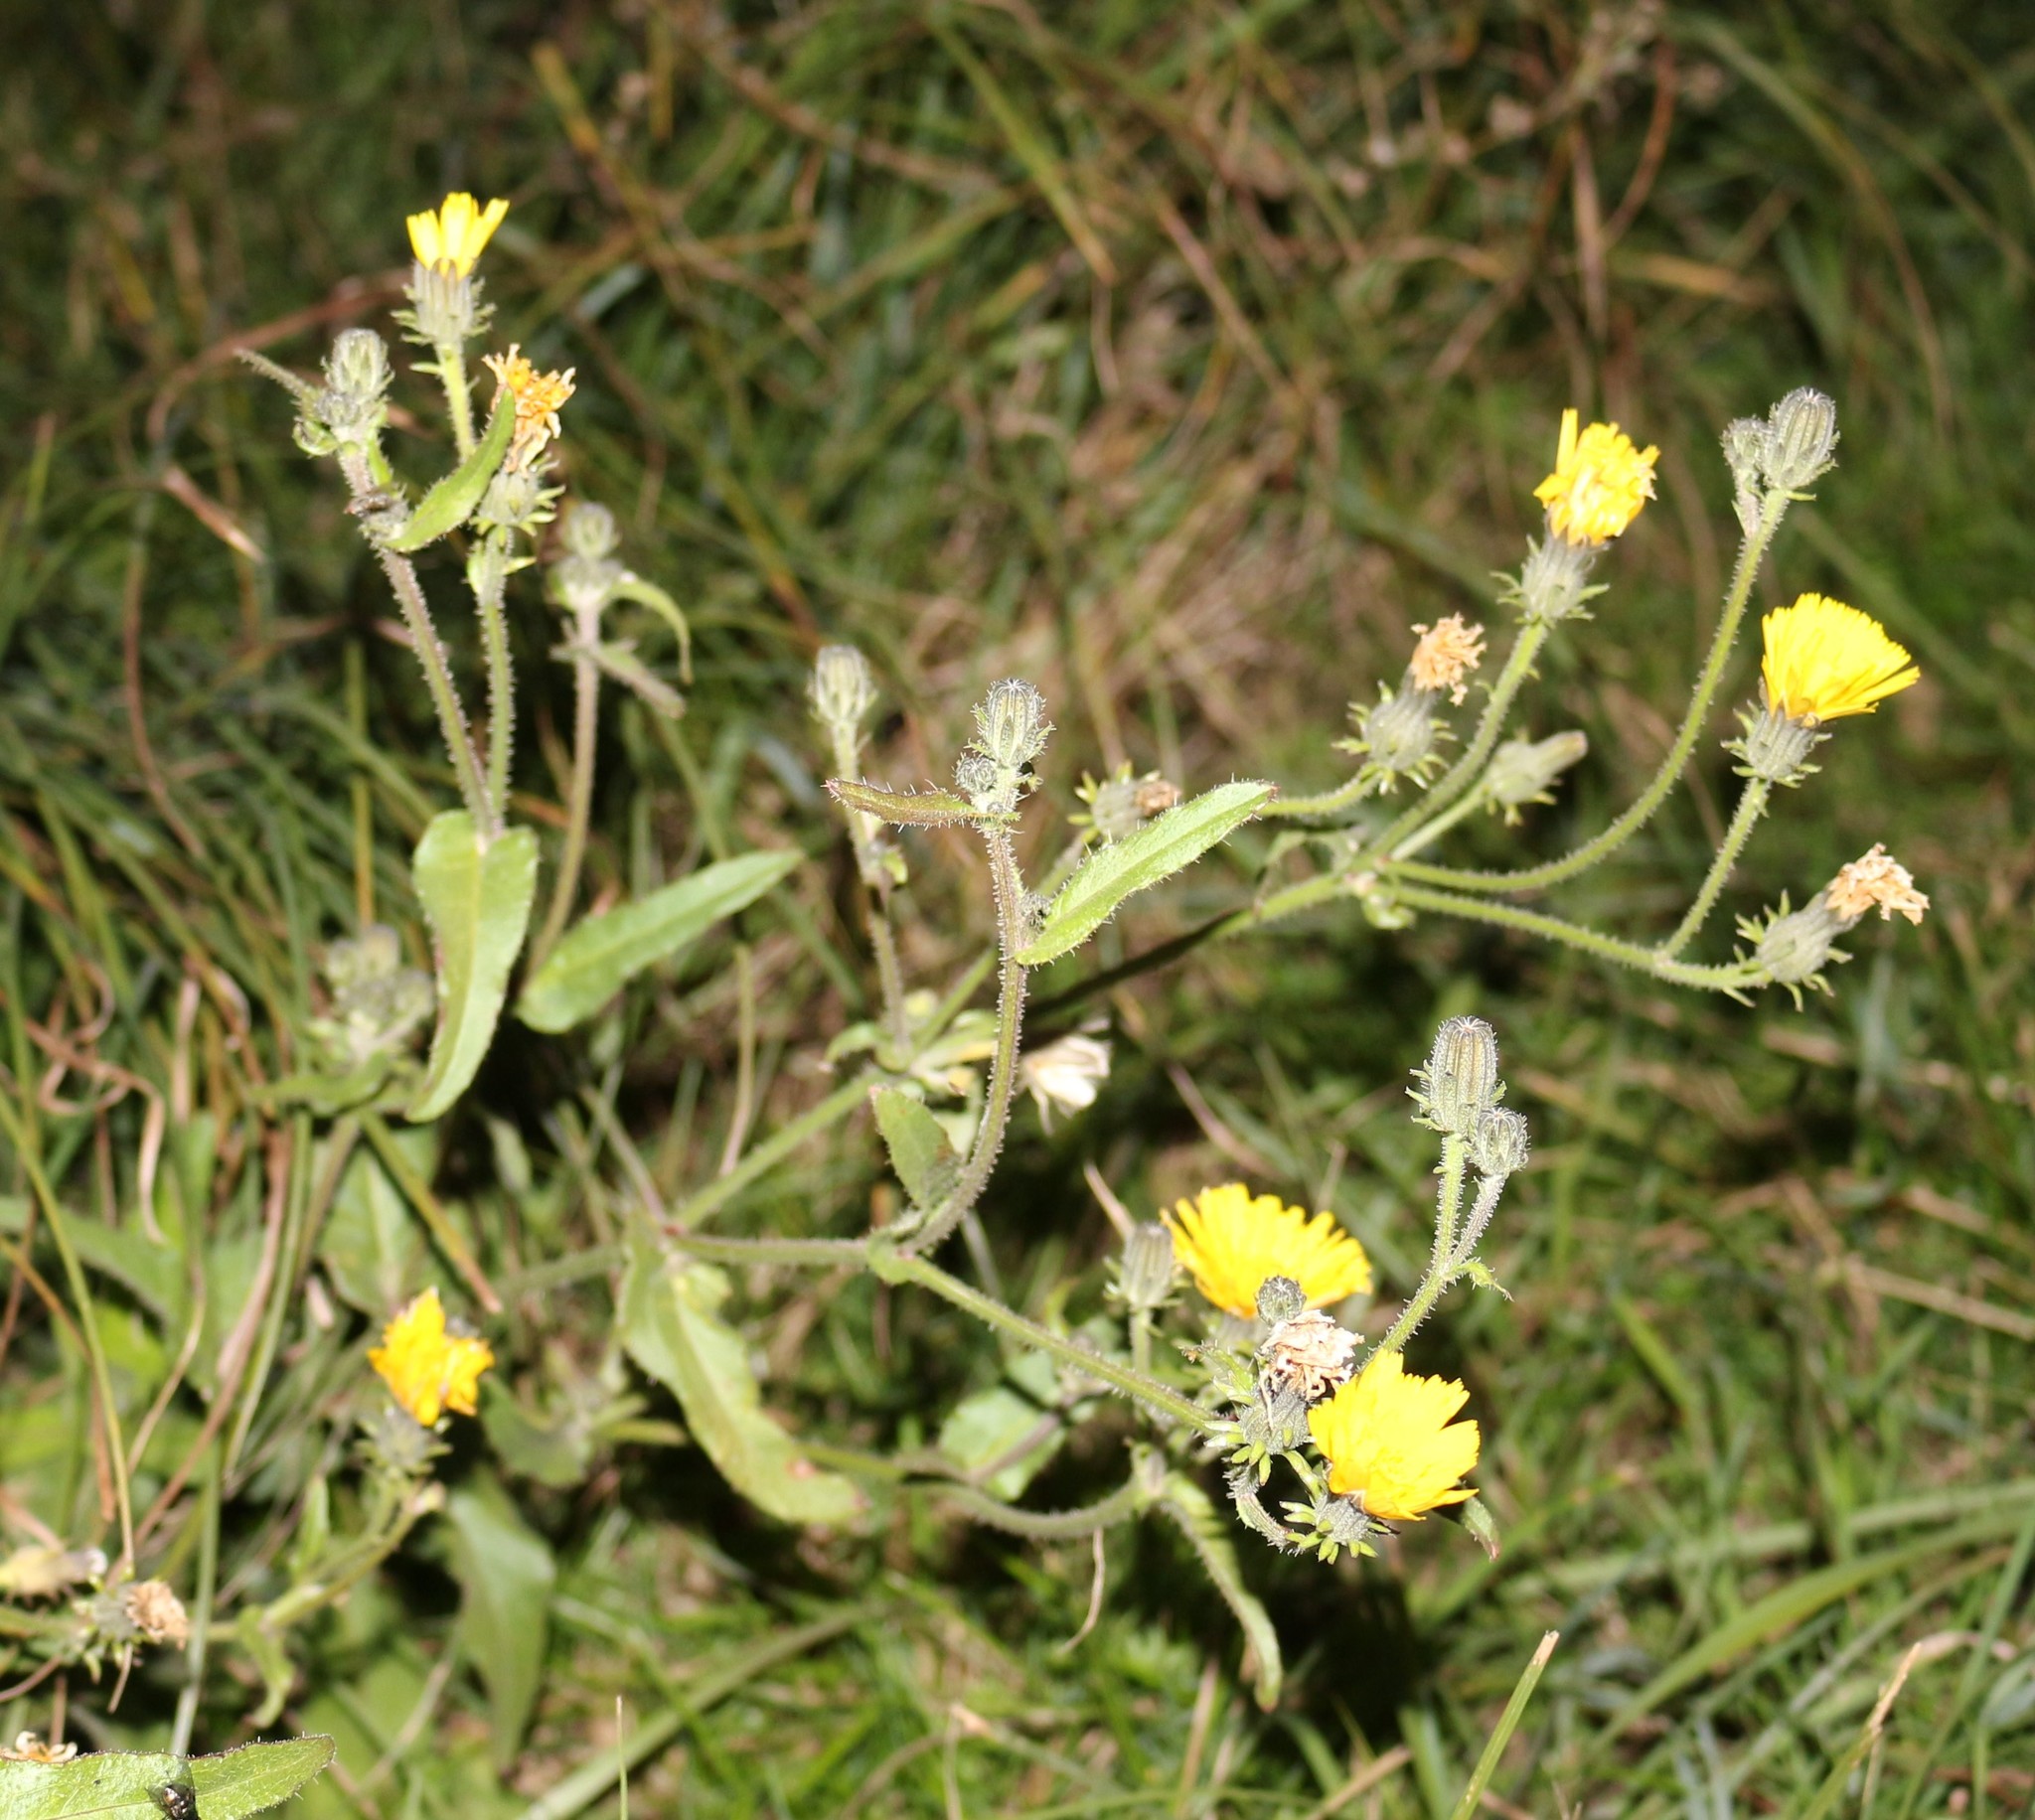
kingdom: Plantae
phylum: Tracheophyta
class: Magnoliopsida
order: Asterales
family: Asteraceae
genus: Picris
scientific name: Picris hieracioides
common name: Hawkweed oxtongue
